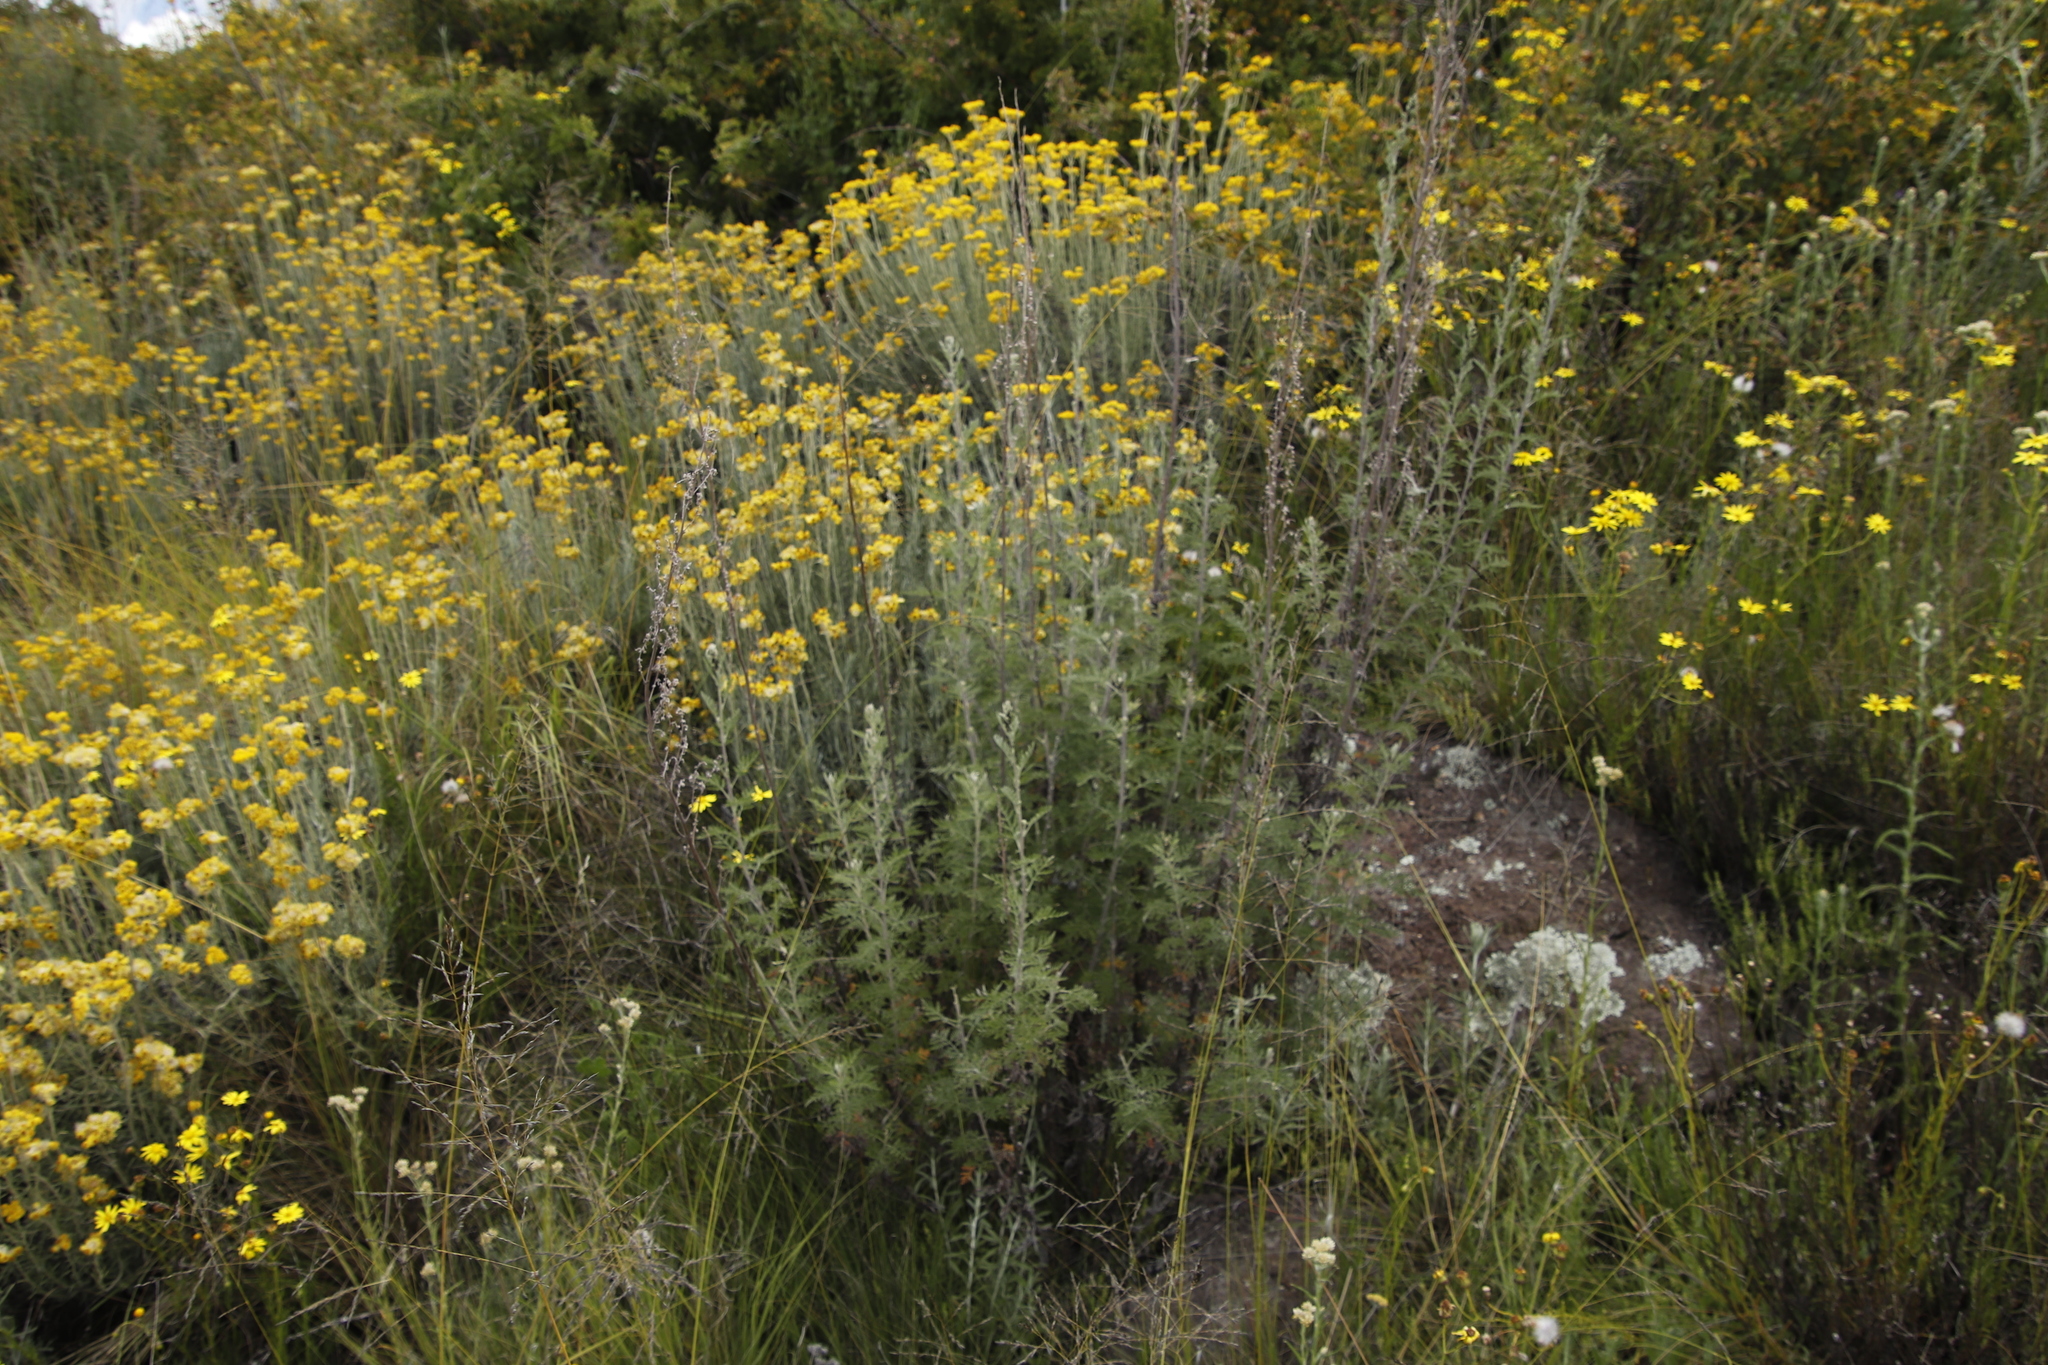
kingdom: Plantae
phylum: Tracheophyta
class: Magnoliopsida
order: Asterales
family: Asteraceae
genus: Artemisia
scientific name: Artemisia afra
